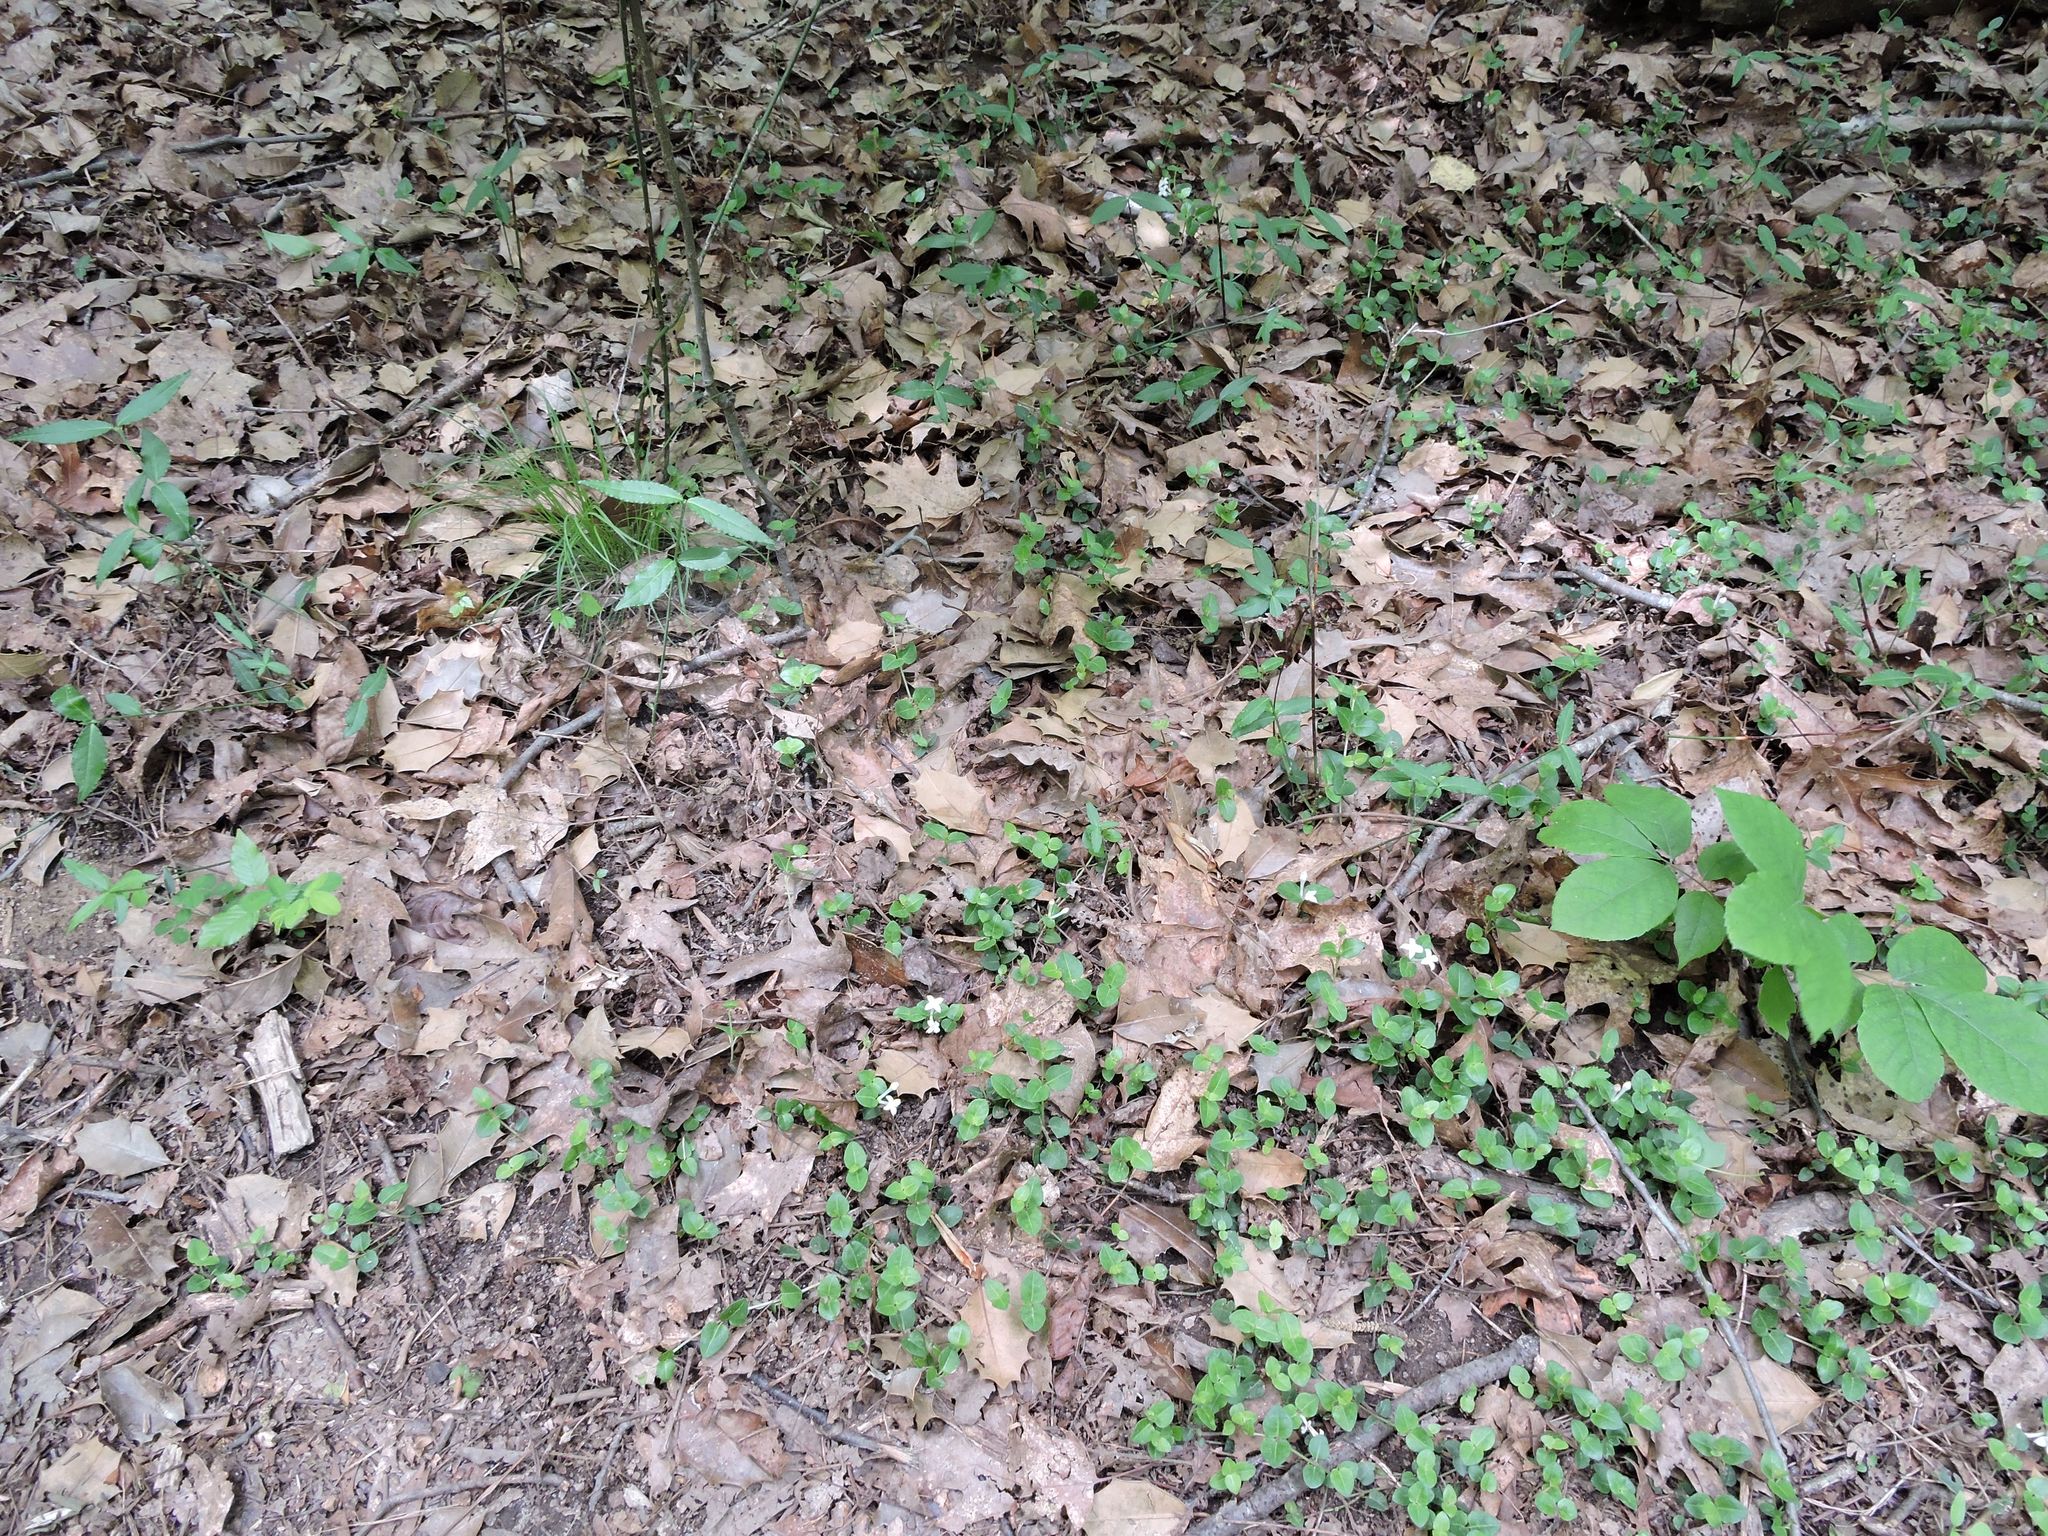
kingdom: Plantae
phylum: Tracheophyta
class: Magnoliopsida
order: Gentianales
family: Rubiaceae
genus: Mitchella
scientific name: Mitchella repens
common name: Partridge-berry
